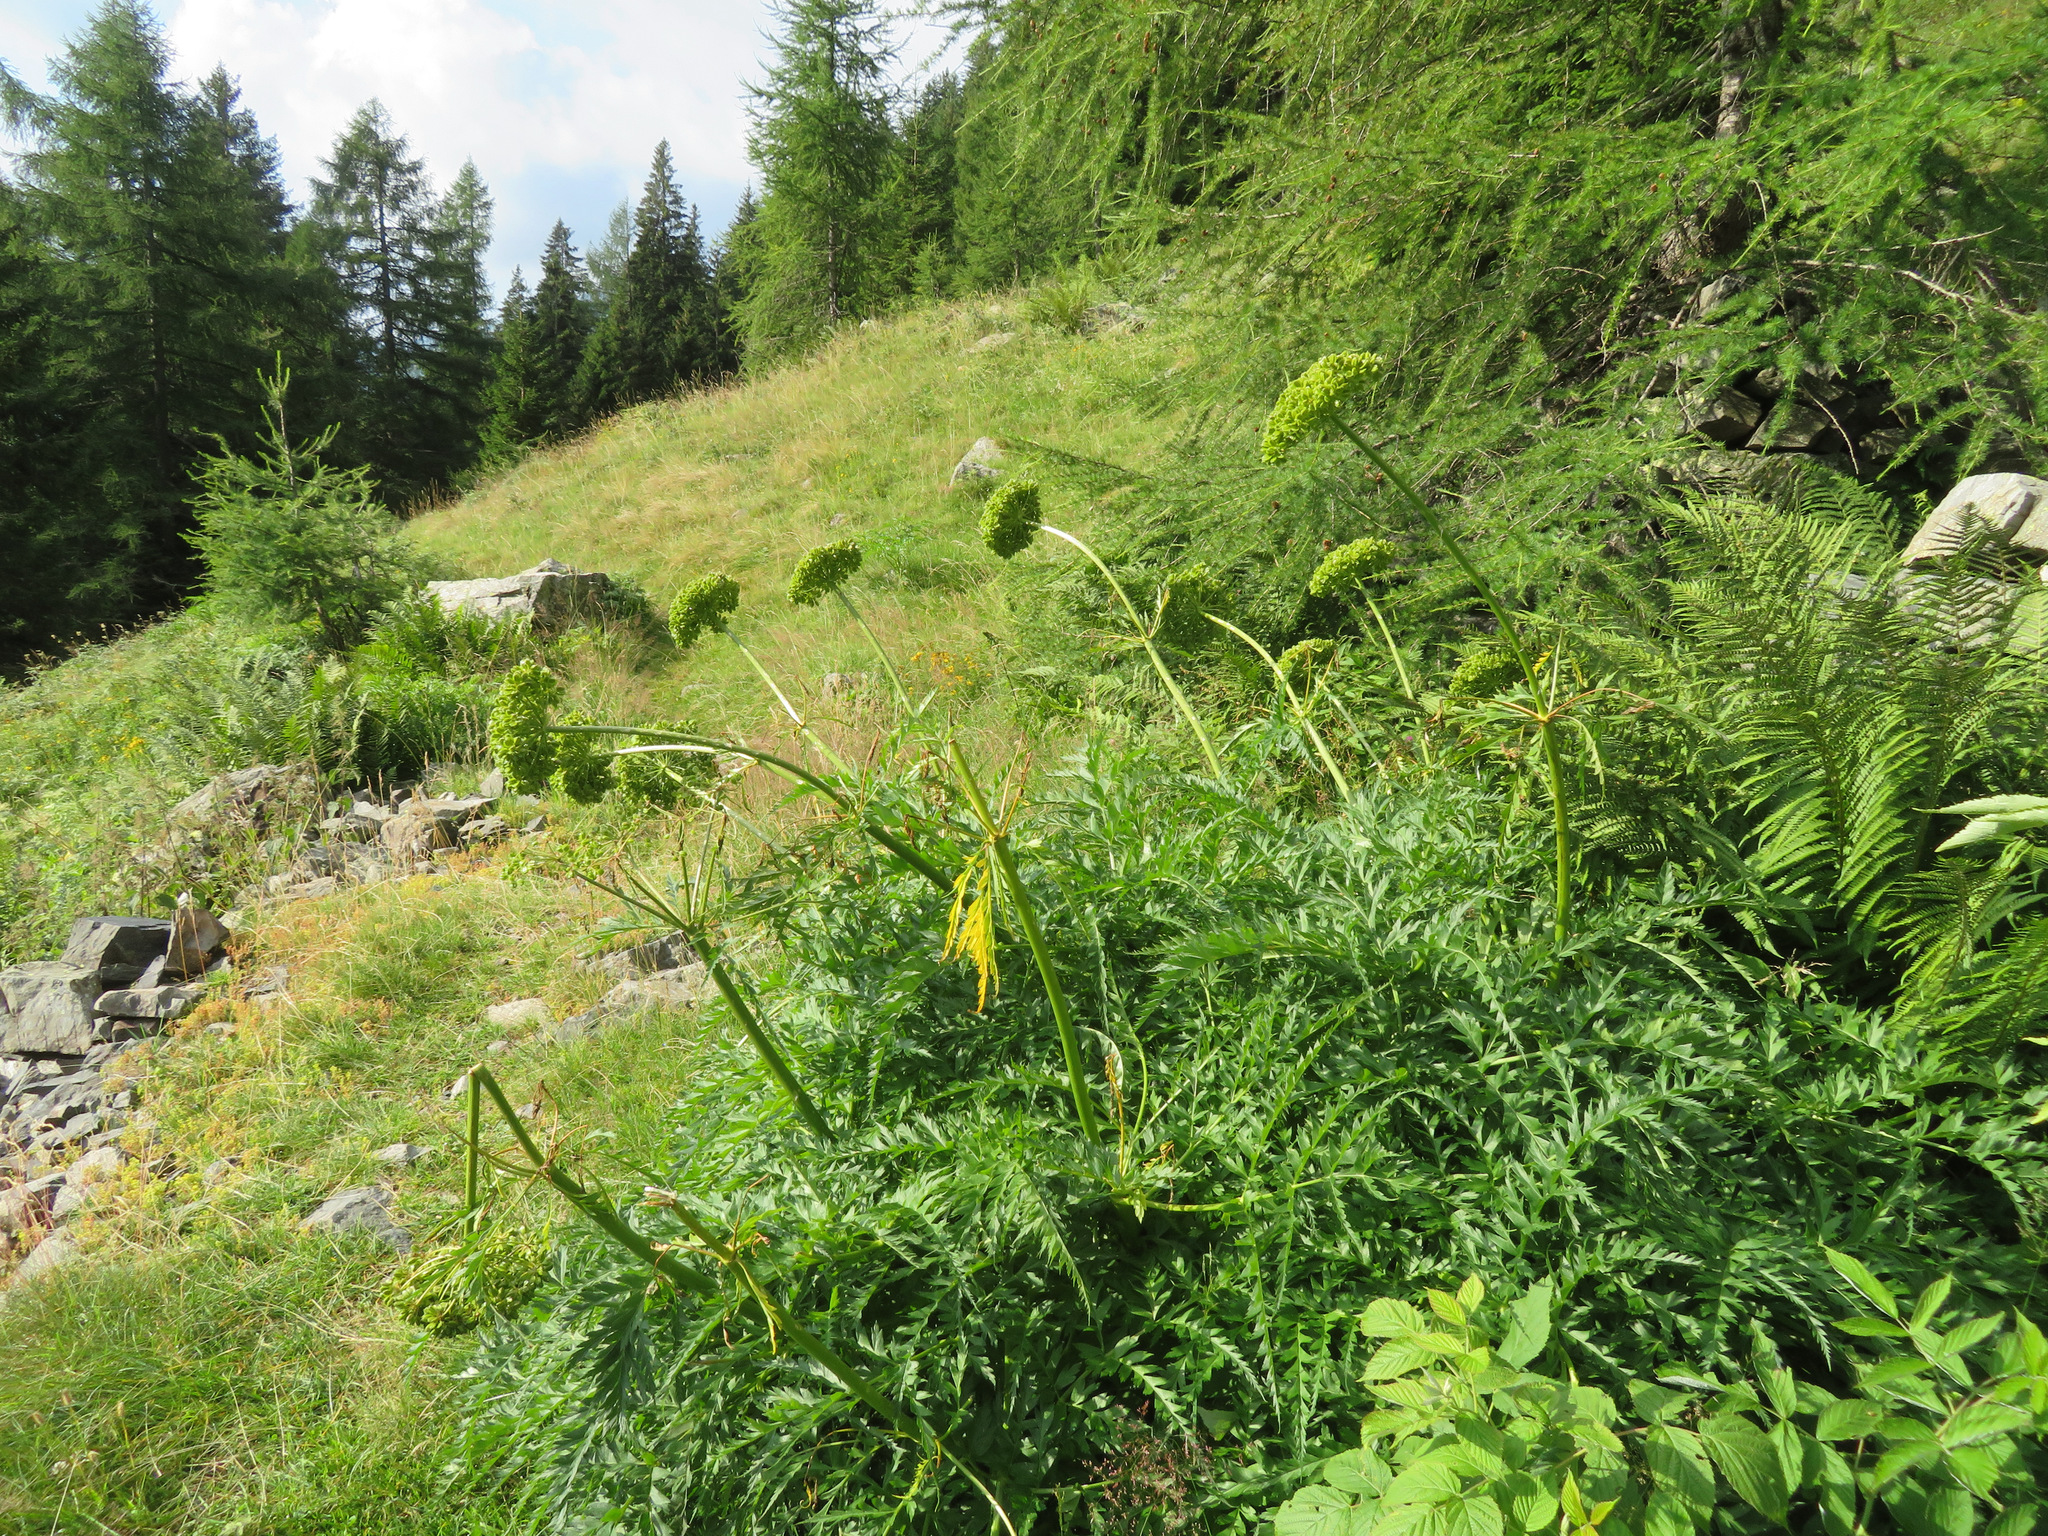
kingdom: Plantae
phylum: Tracheophyta
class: Magnoliopsida
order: Apiales
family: Apiaceae
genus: Molopospermum
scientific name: Molopospermum peloponnesiacum
